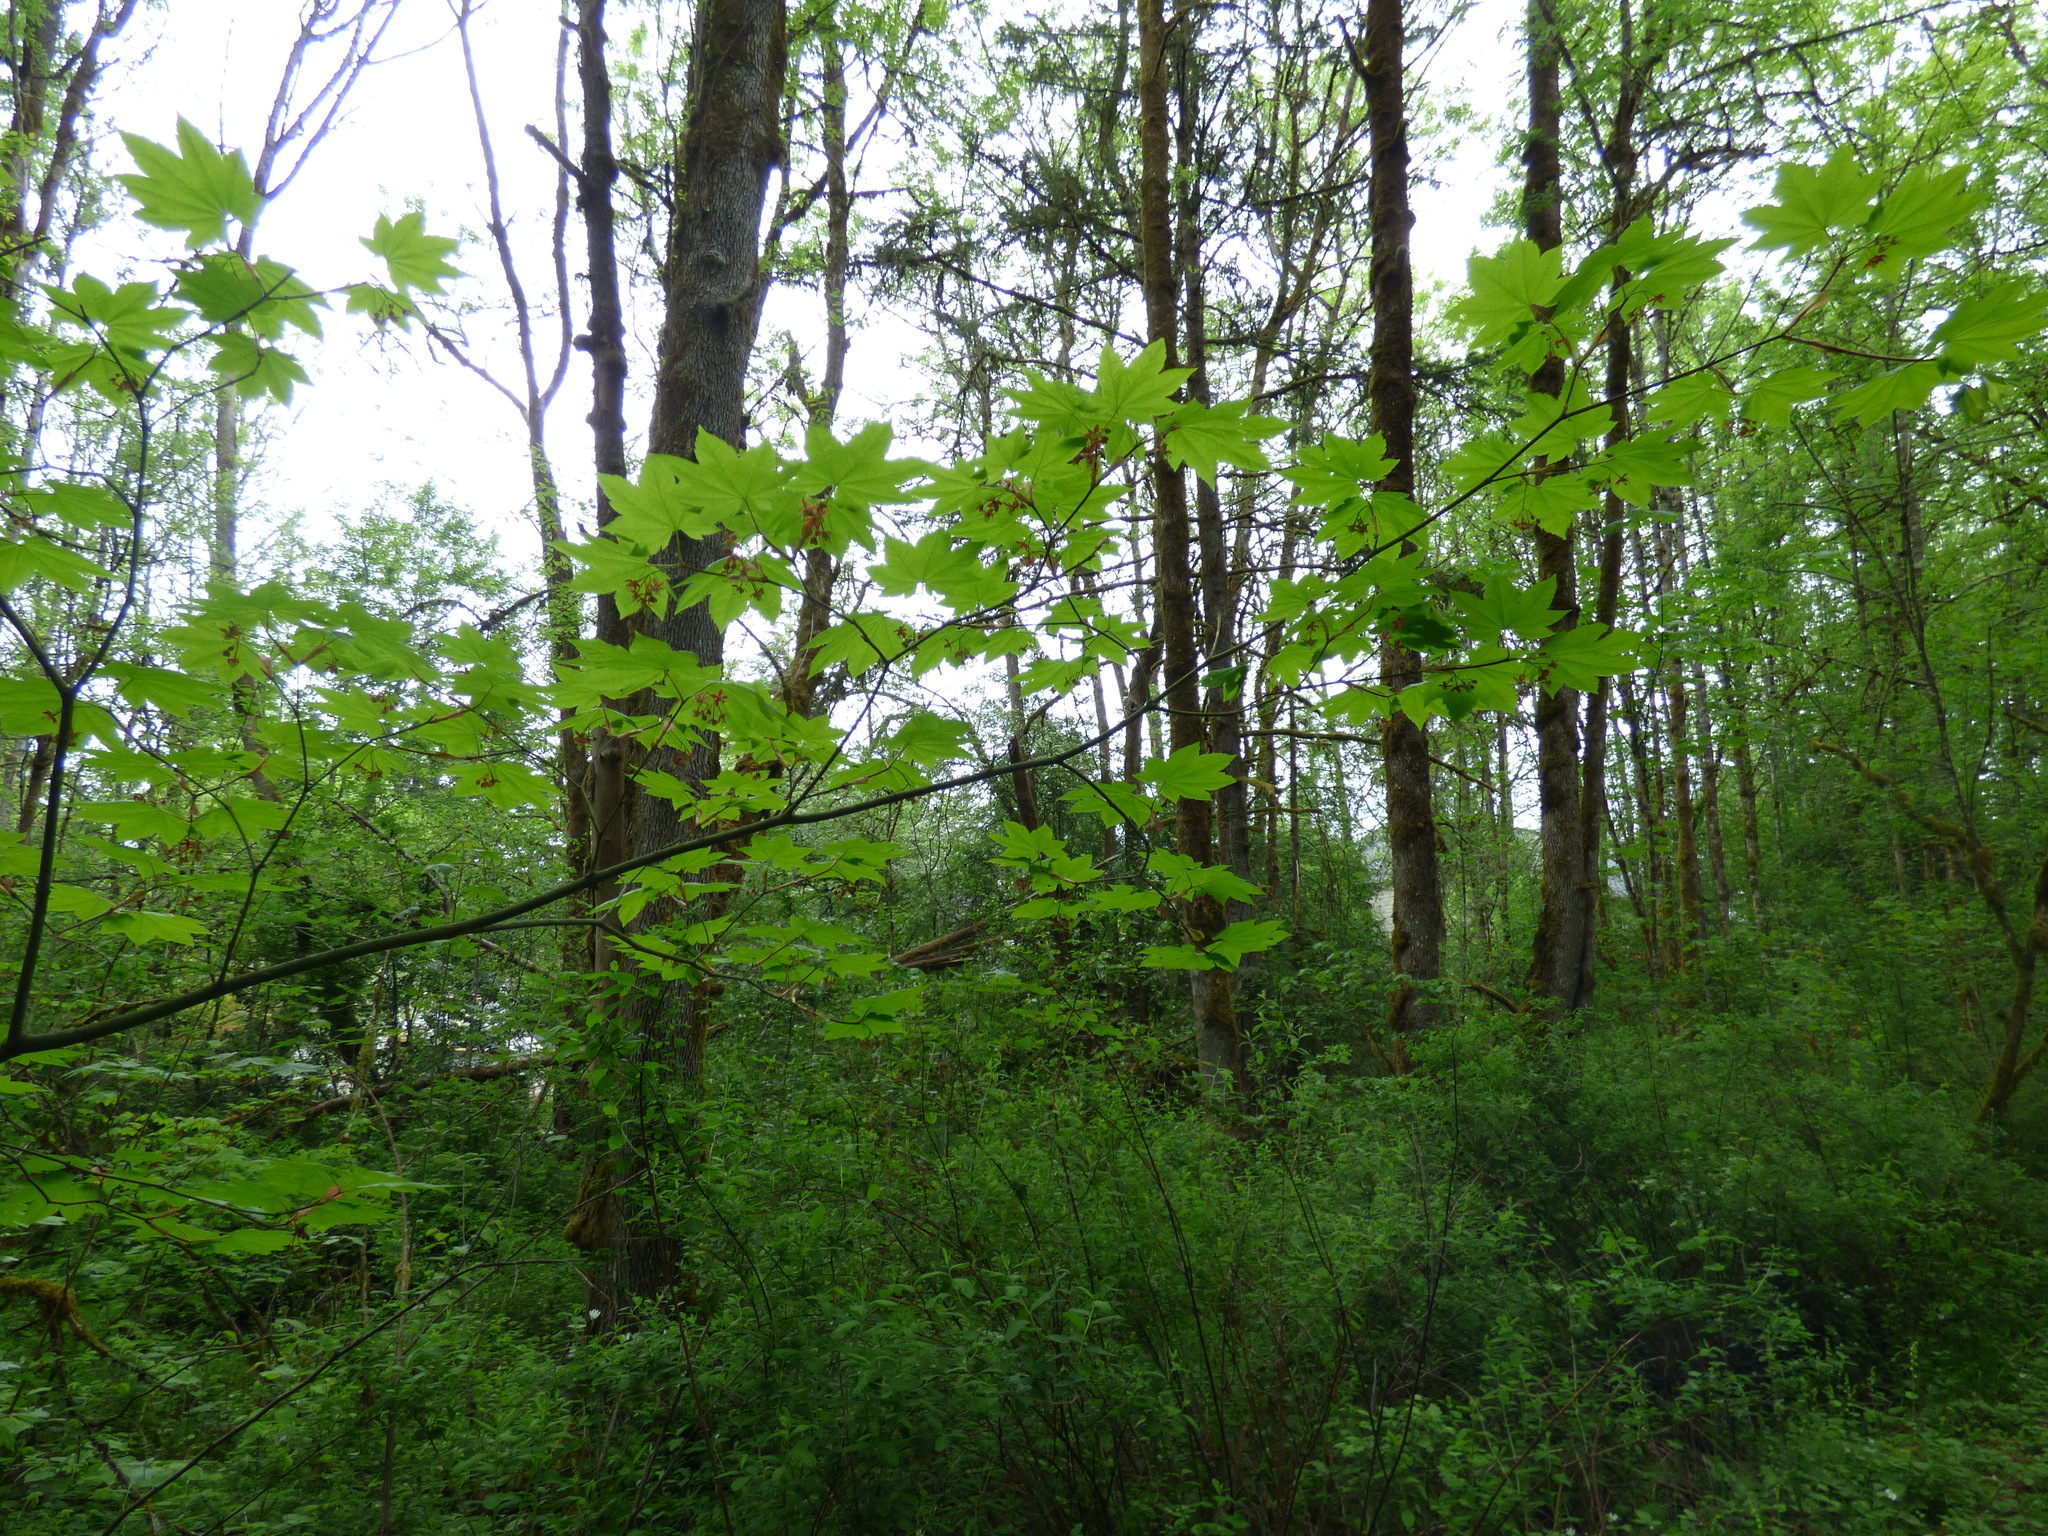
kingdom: Plantae
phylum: Tracheophyta
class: Magnoliopsida
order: Sapindales
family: Sapindaceae
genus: Acer
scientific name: Acer circinatum
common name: Vine maple
